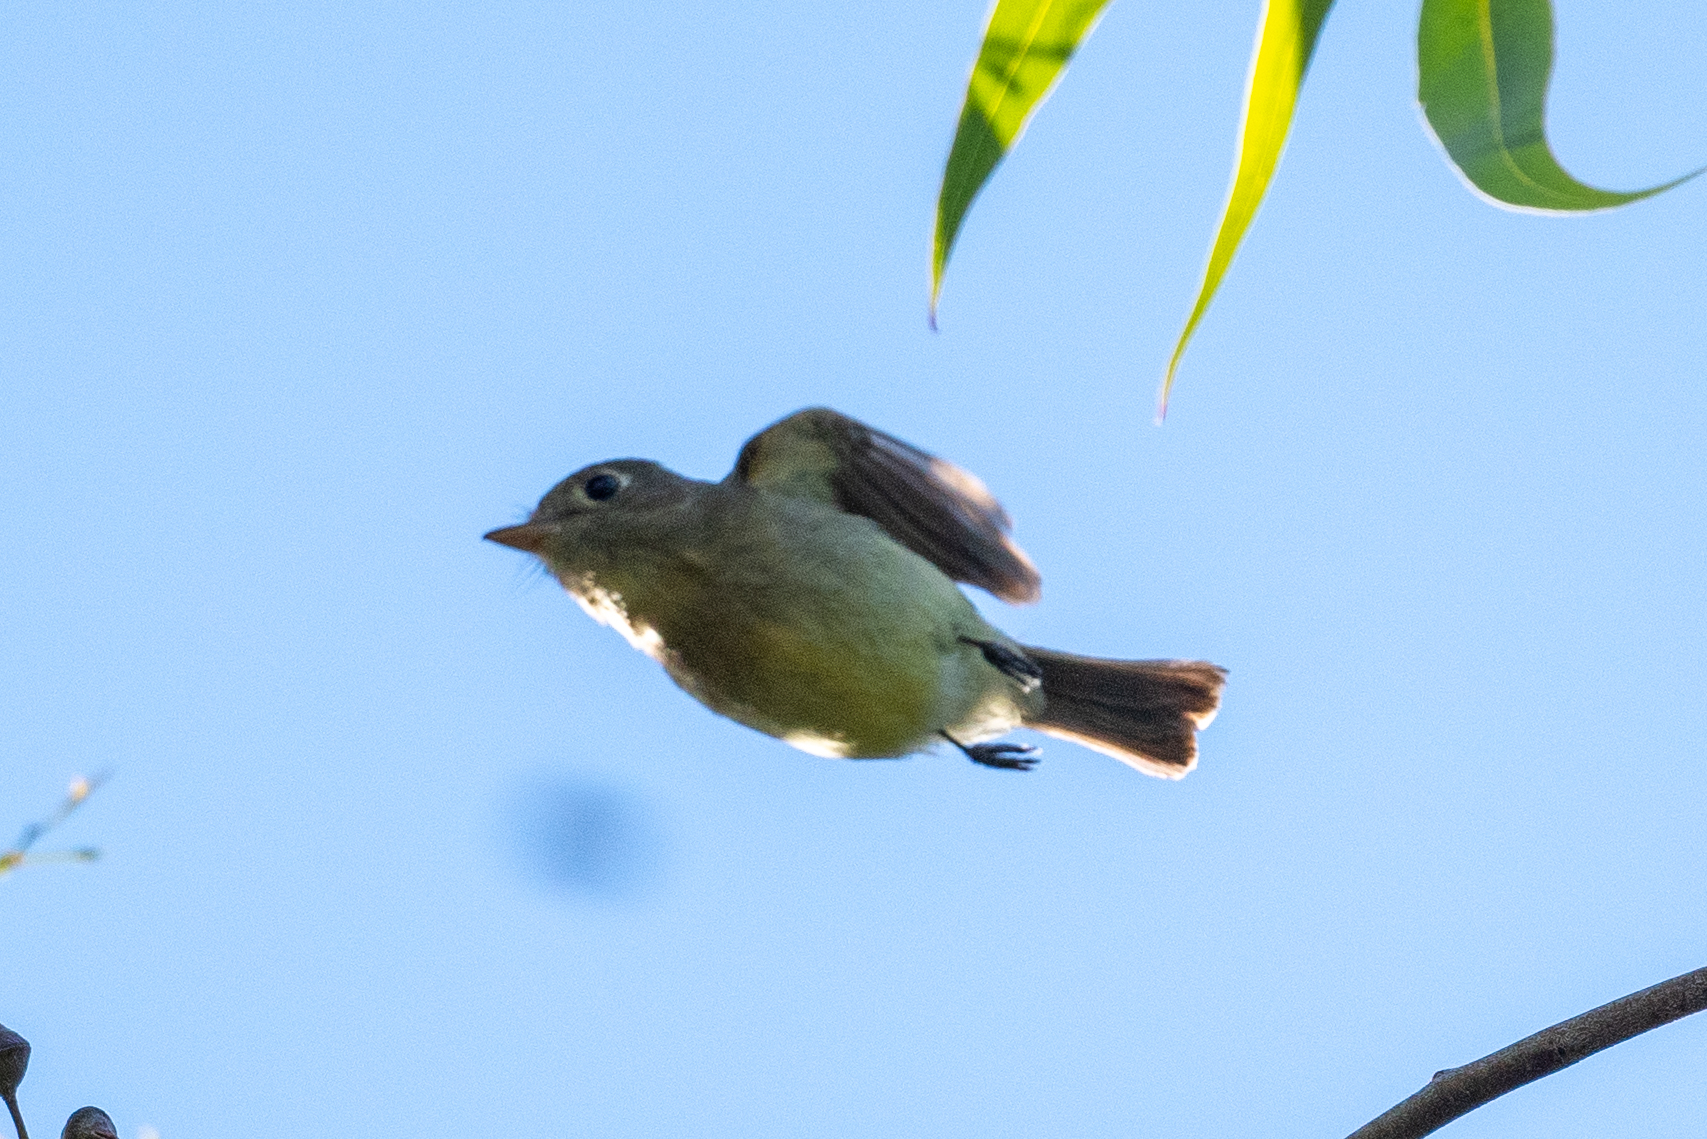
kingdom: Animalia
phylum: Chordata
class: Aves
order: Passeriformes
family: Tyrannidae
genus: Empidonax
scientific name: Empidonax difficilis
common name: Pacific-slope flycatcher
